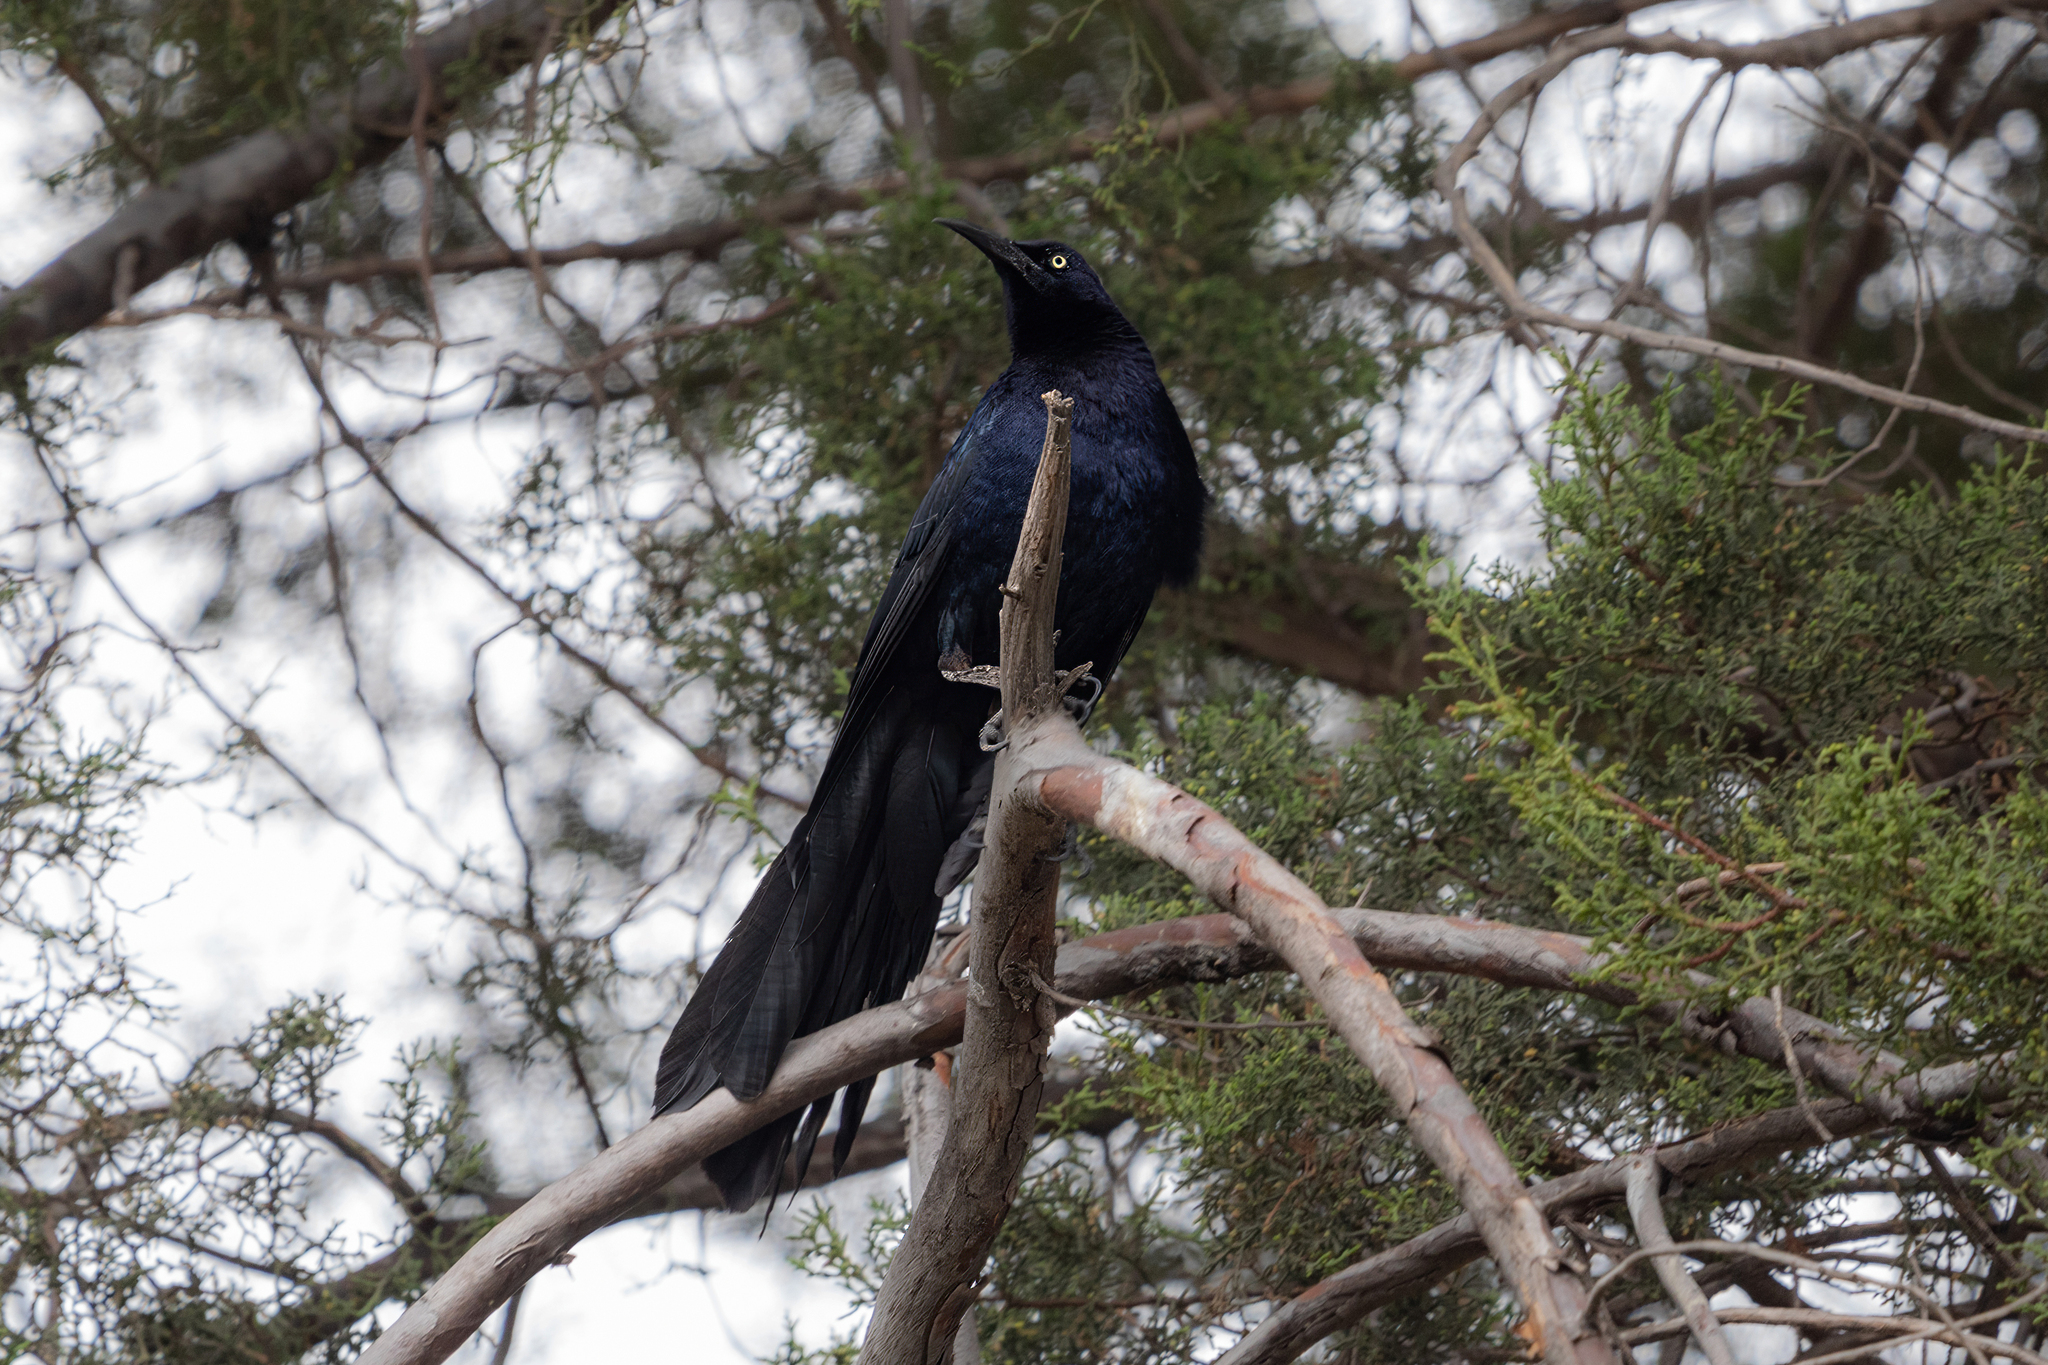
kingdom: Animalia
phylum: Chordata
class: Aves
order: Passeriformes
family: Icteridae
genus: Quiscalus
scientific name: Quiscalus mexicanus
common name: Great-tailed grackle
